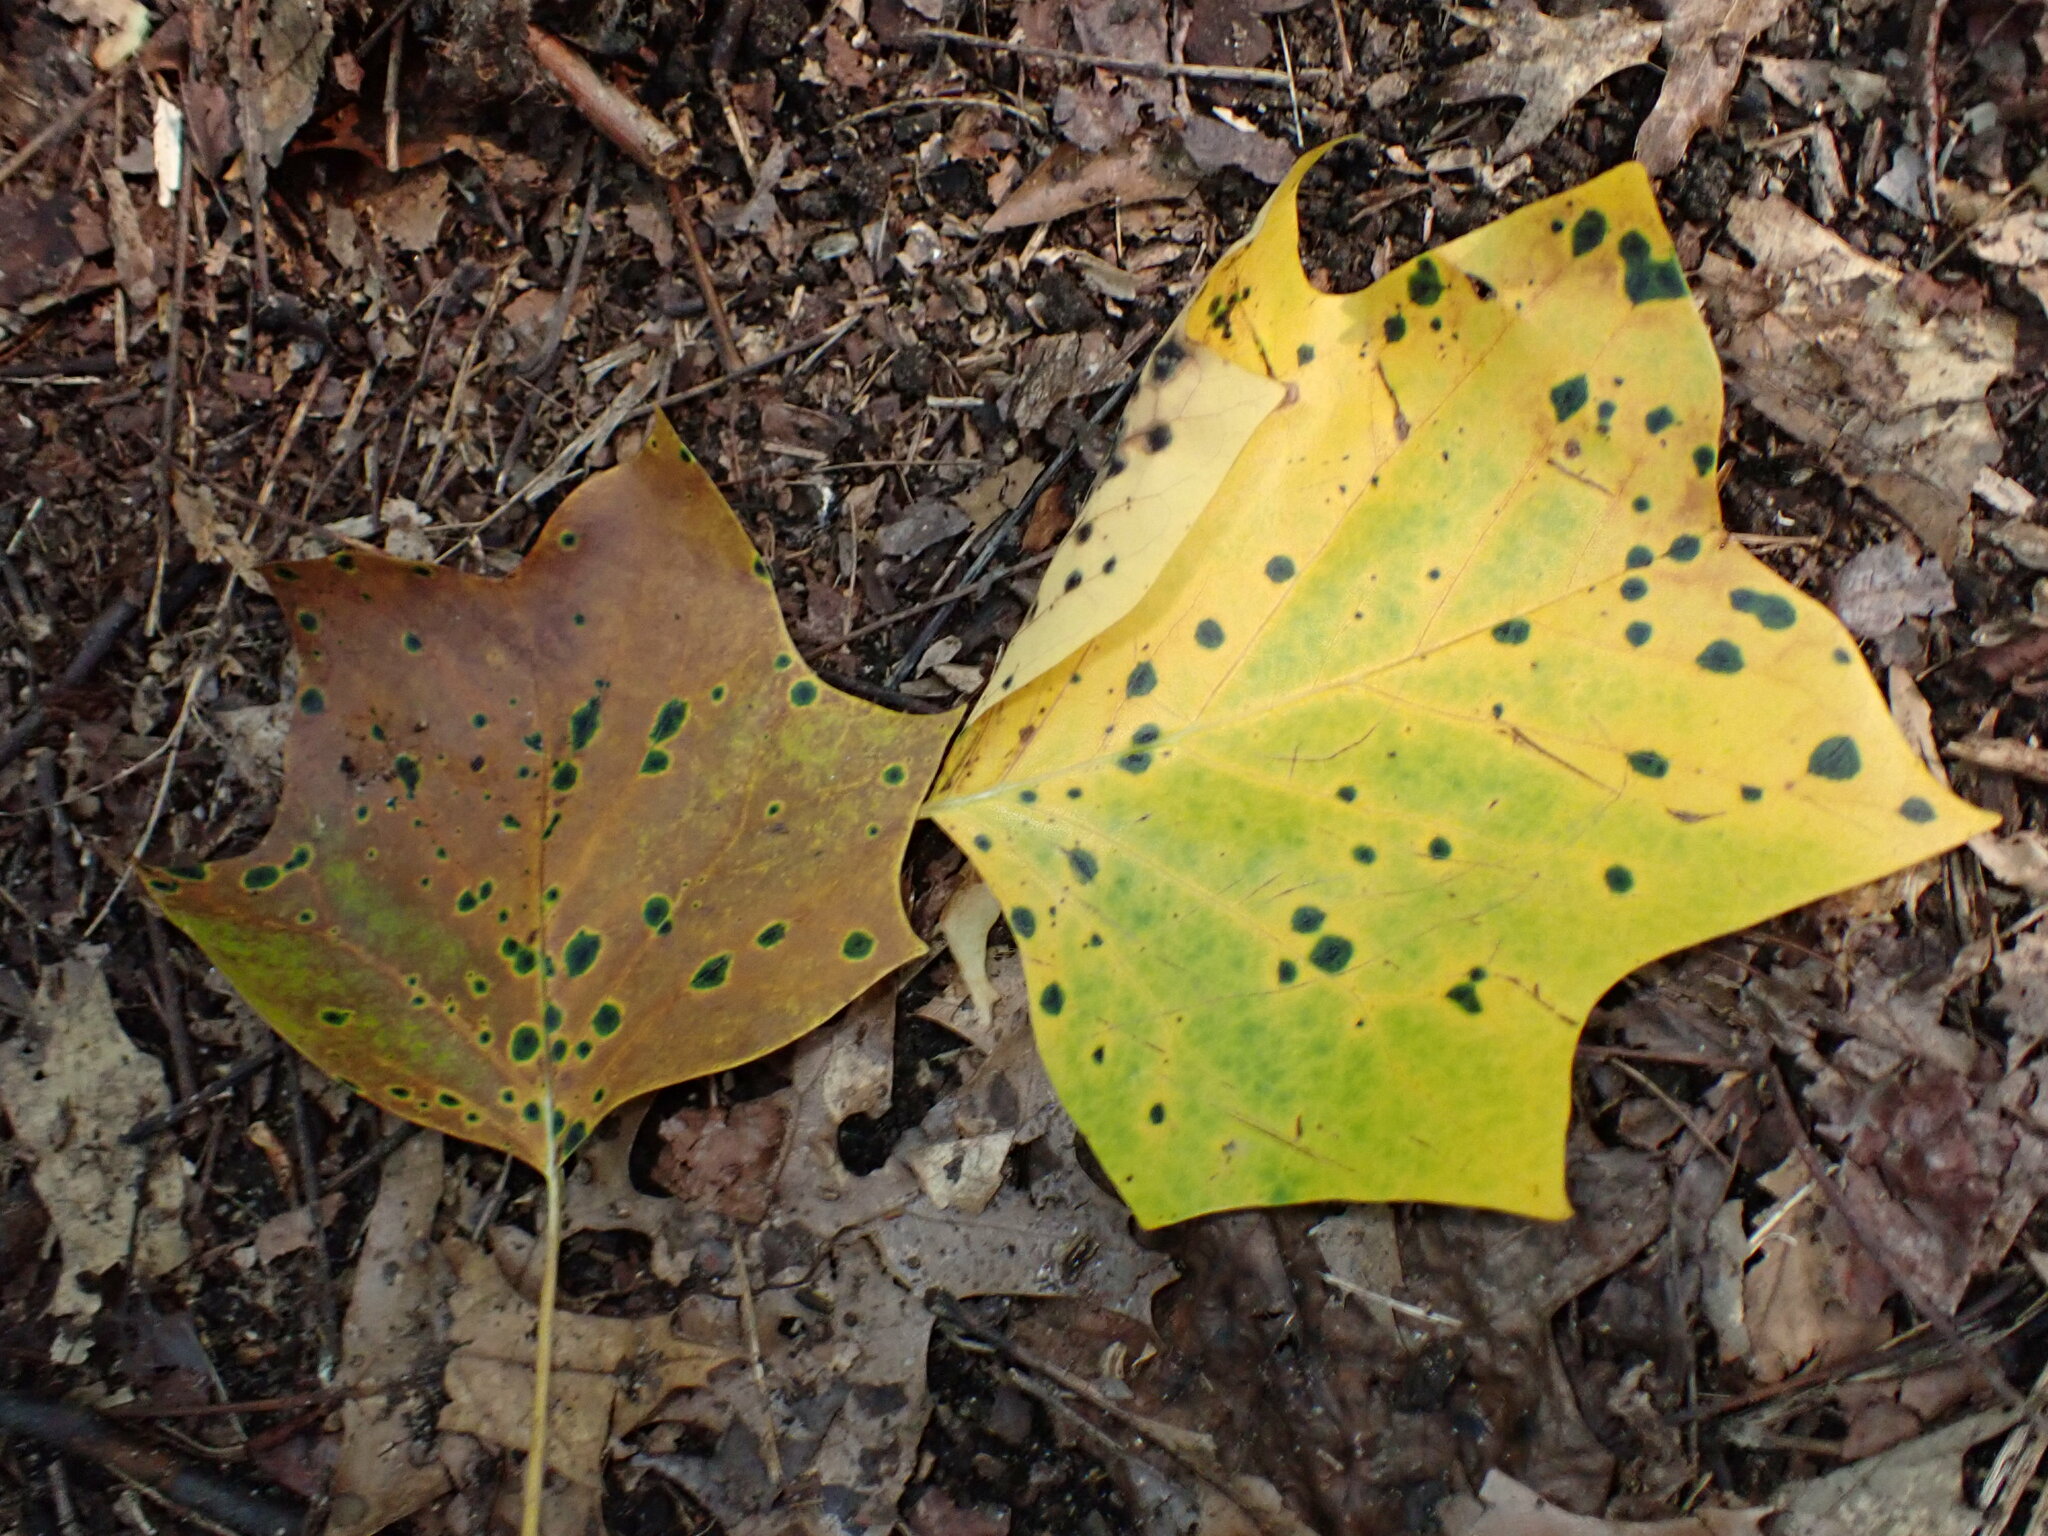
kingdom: Animalia
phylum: Arthropoda
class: Insecta
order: Diptera
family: Cecidomyiidae
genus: Resseliella
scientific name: Resseliella liriodendri
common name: Tulip tree leaf spot gall midge
